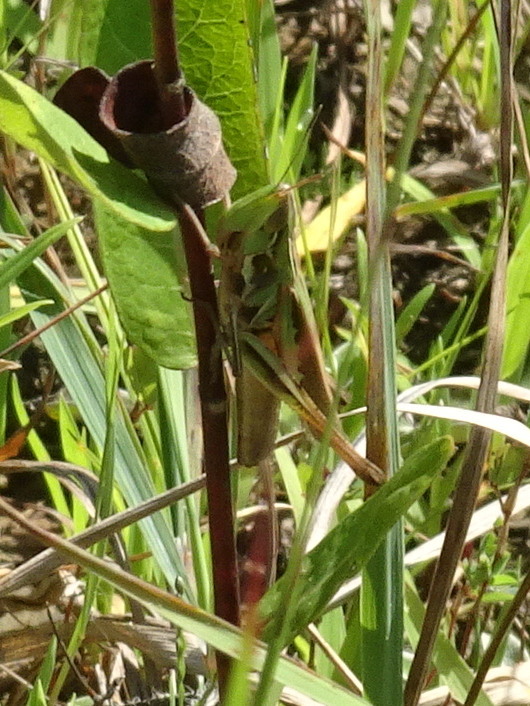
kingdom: Animalia
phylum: Arthropoda
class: Insecta
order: Orthoptera
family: Acrididae
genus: Syrbula
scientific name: Syrbula admirabilis
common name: Handsome grasshopper
